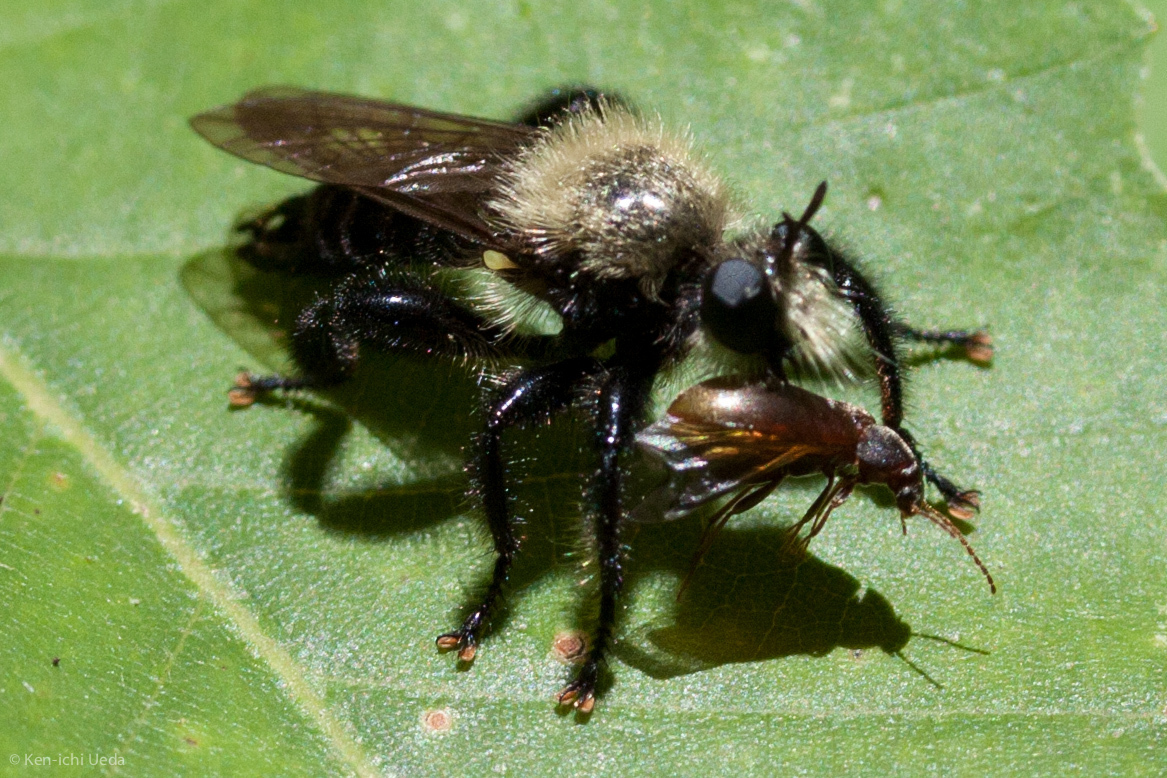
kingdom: Animalia
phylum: Arthropoda
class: Insecta
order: Diptera
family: Asilidae
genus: Laphria
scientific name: Laphria flavicollis
